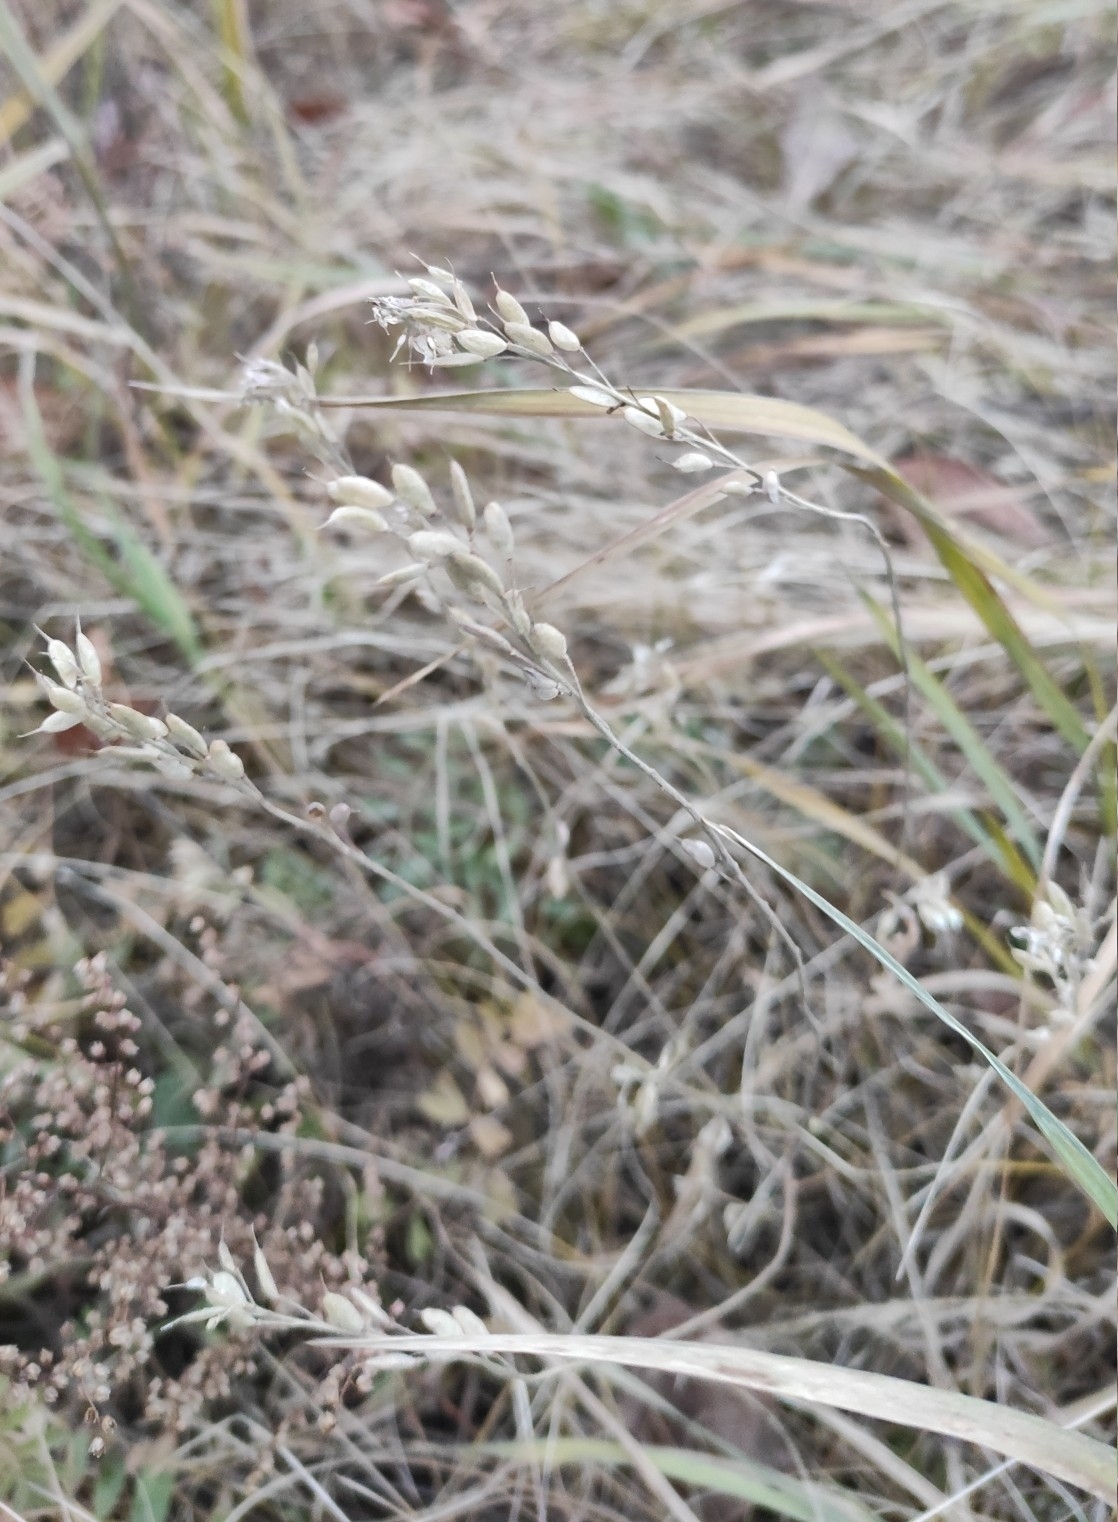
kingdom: Plantae
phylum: Tracheophyta
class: Magnoliopsida
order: Brassicales
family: Brassicaceae
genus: Berteroa
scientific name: Berteroa incana
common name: Hoary alison
